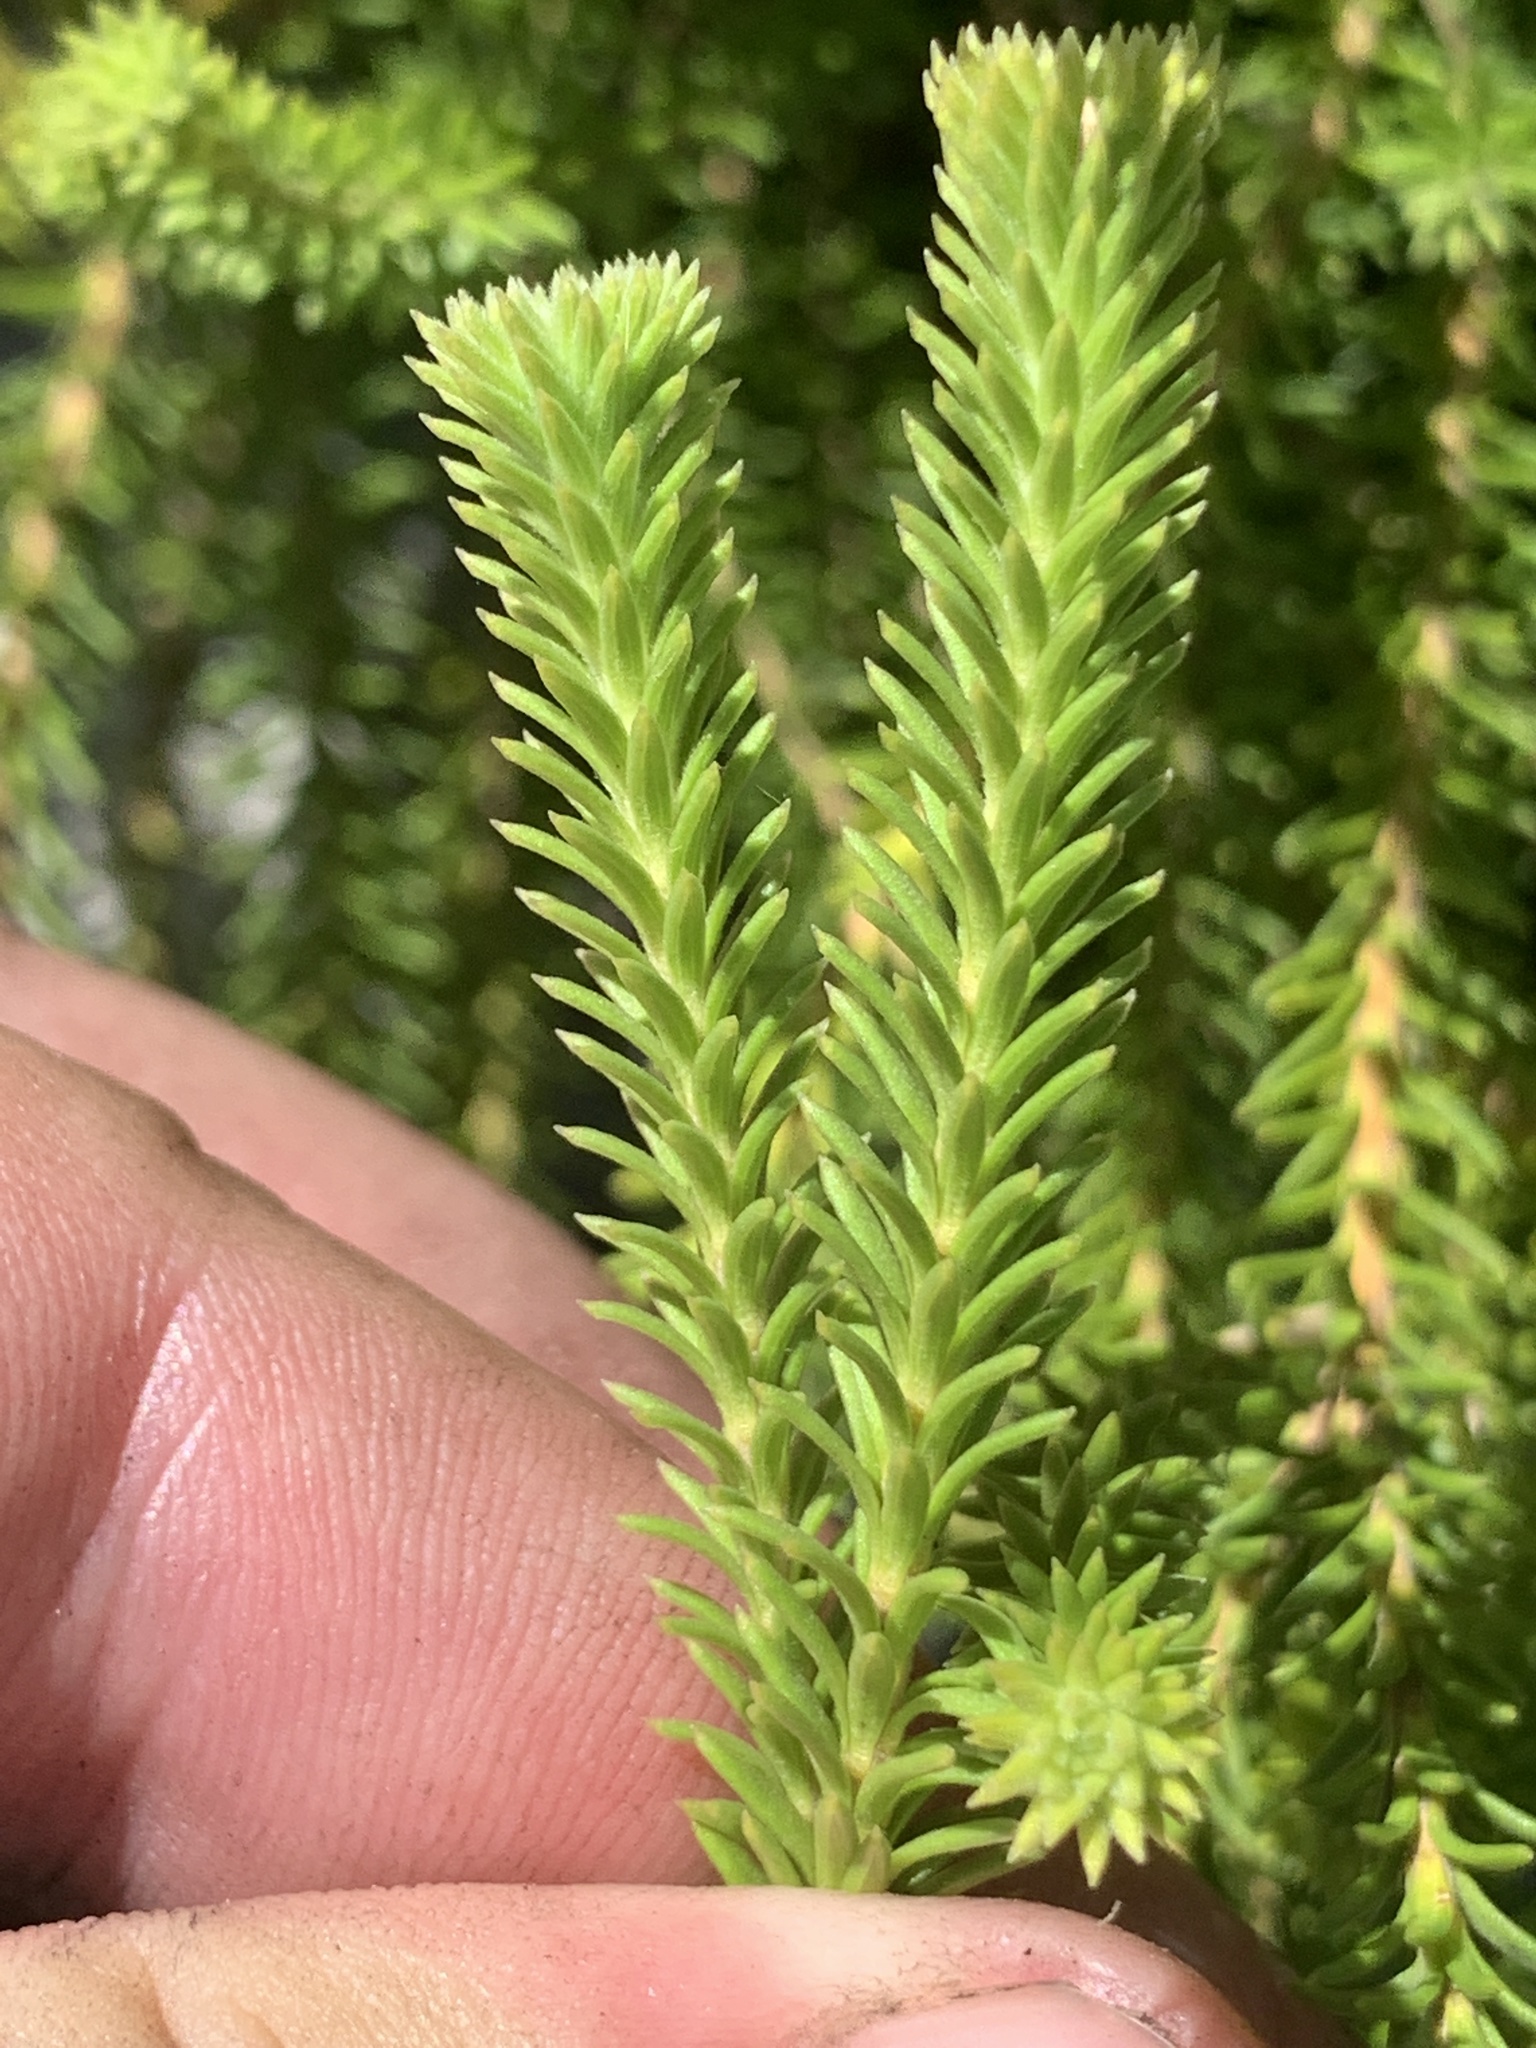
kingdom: Plantae
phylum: Tracheophyta
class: Magnoliopsida
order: Lamiales
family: Stilbaceae
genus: Stilbe
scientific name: Stilbe albiflora
